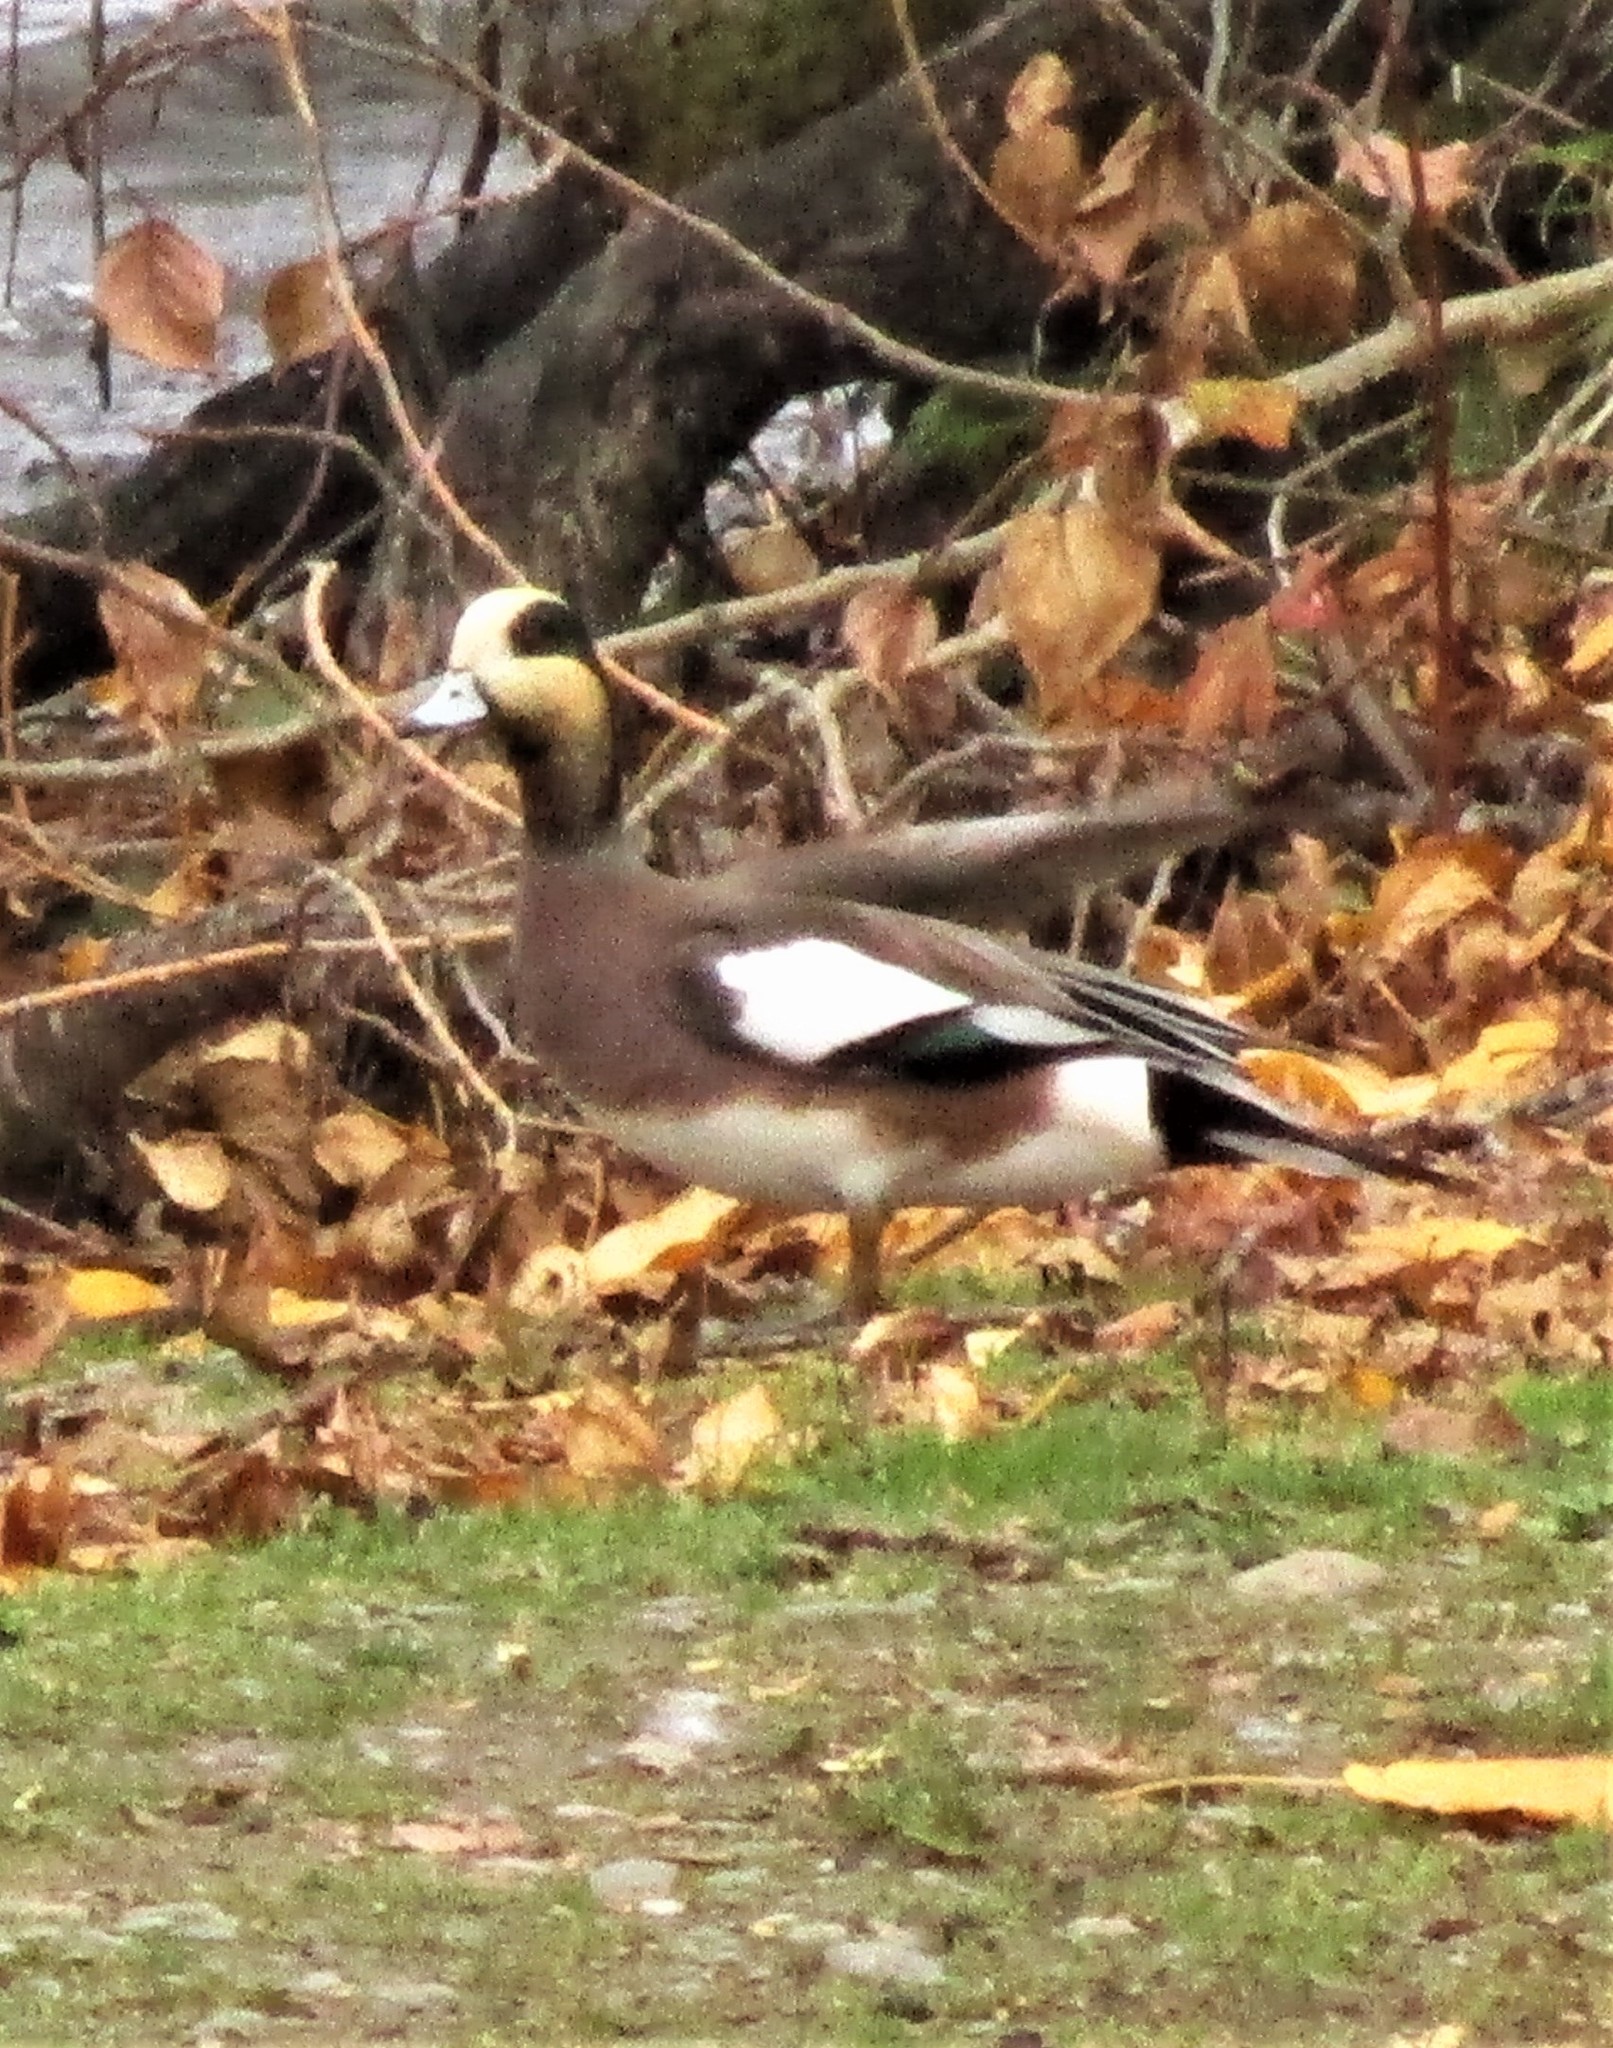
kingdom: Animalia
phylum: Chordata
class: Aves
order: Anseriformes
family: Anatidae
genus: Mareca
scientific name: Mareca americana
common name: American wigeon
